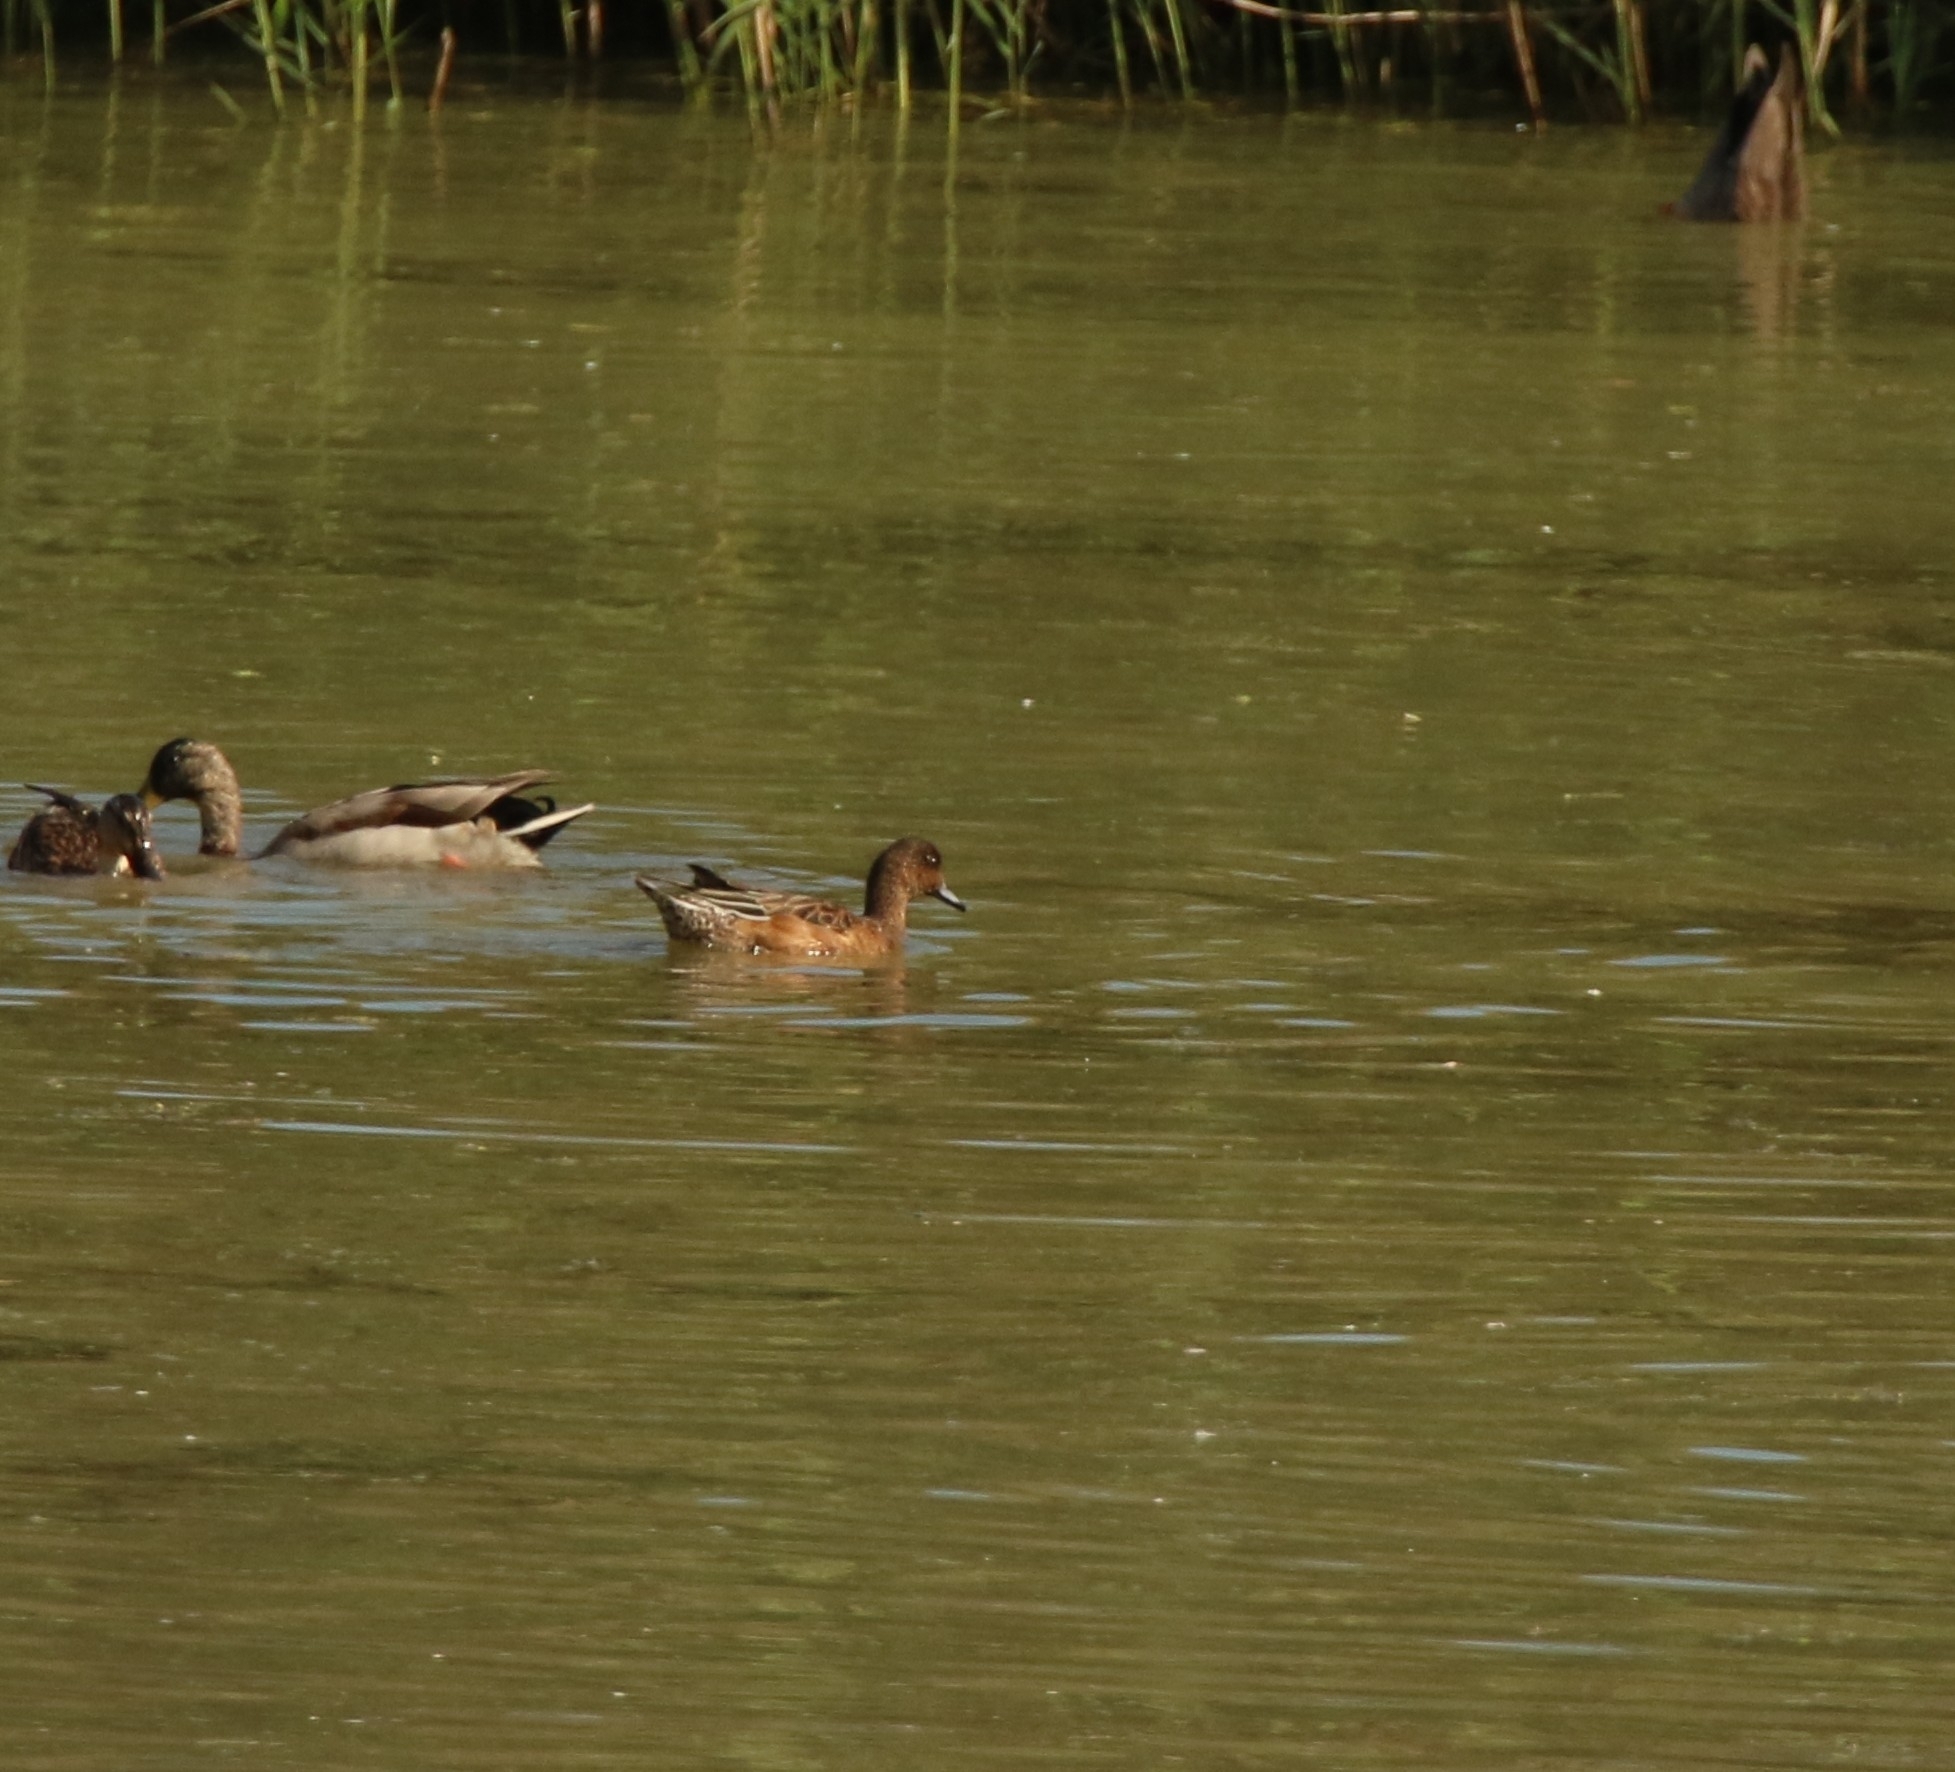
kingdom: Animalia
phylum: Chordata
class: Aves
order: Anseriformes
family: Anatidae
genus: Mareca
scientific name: Mareca penelope
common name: Eurasian wigeon
